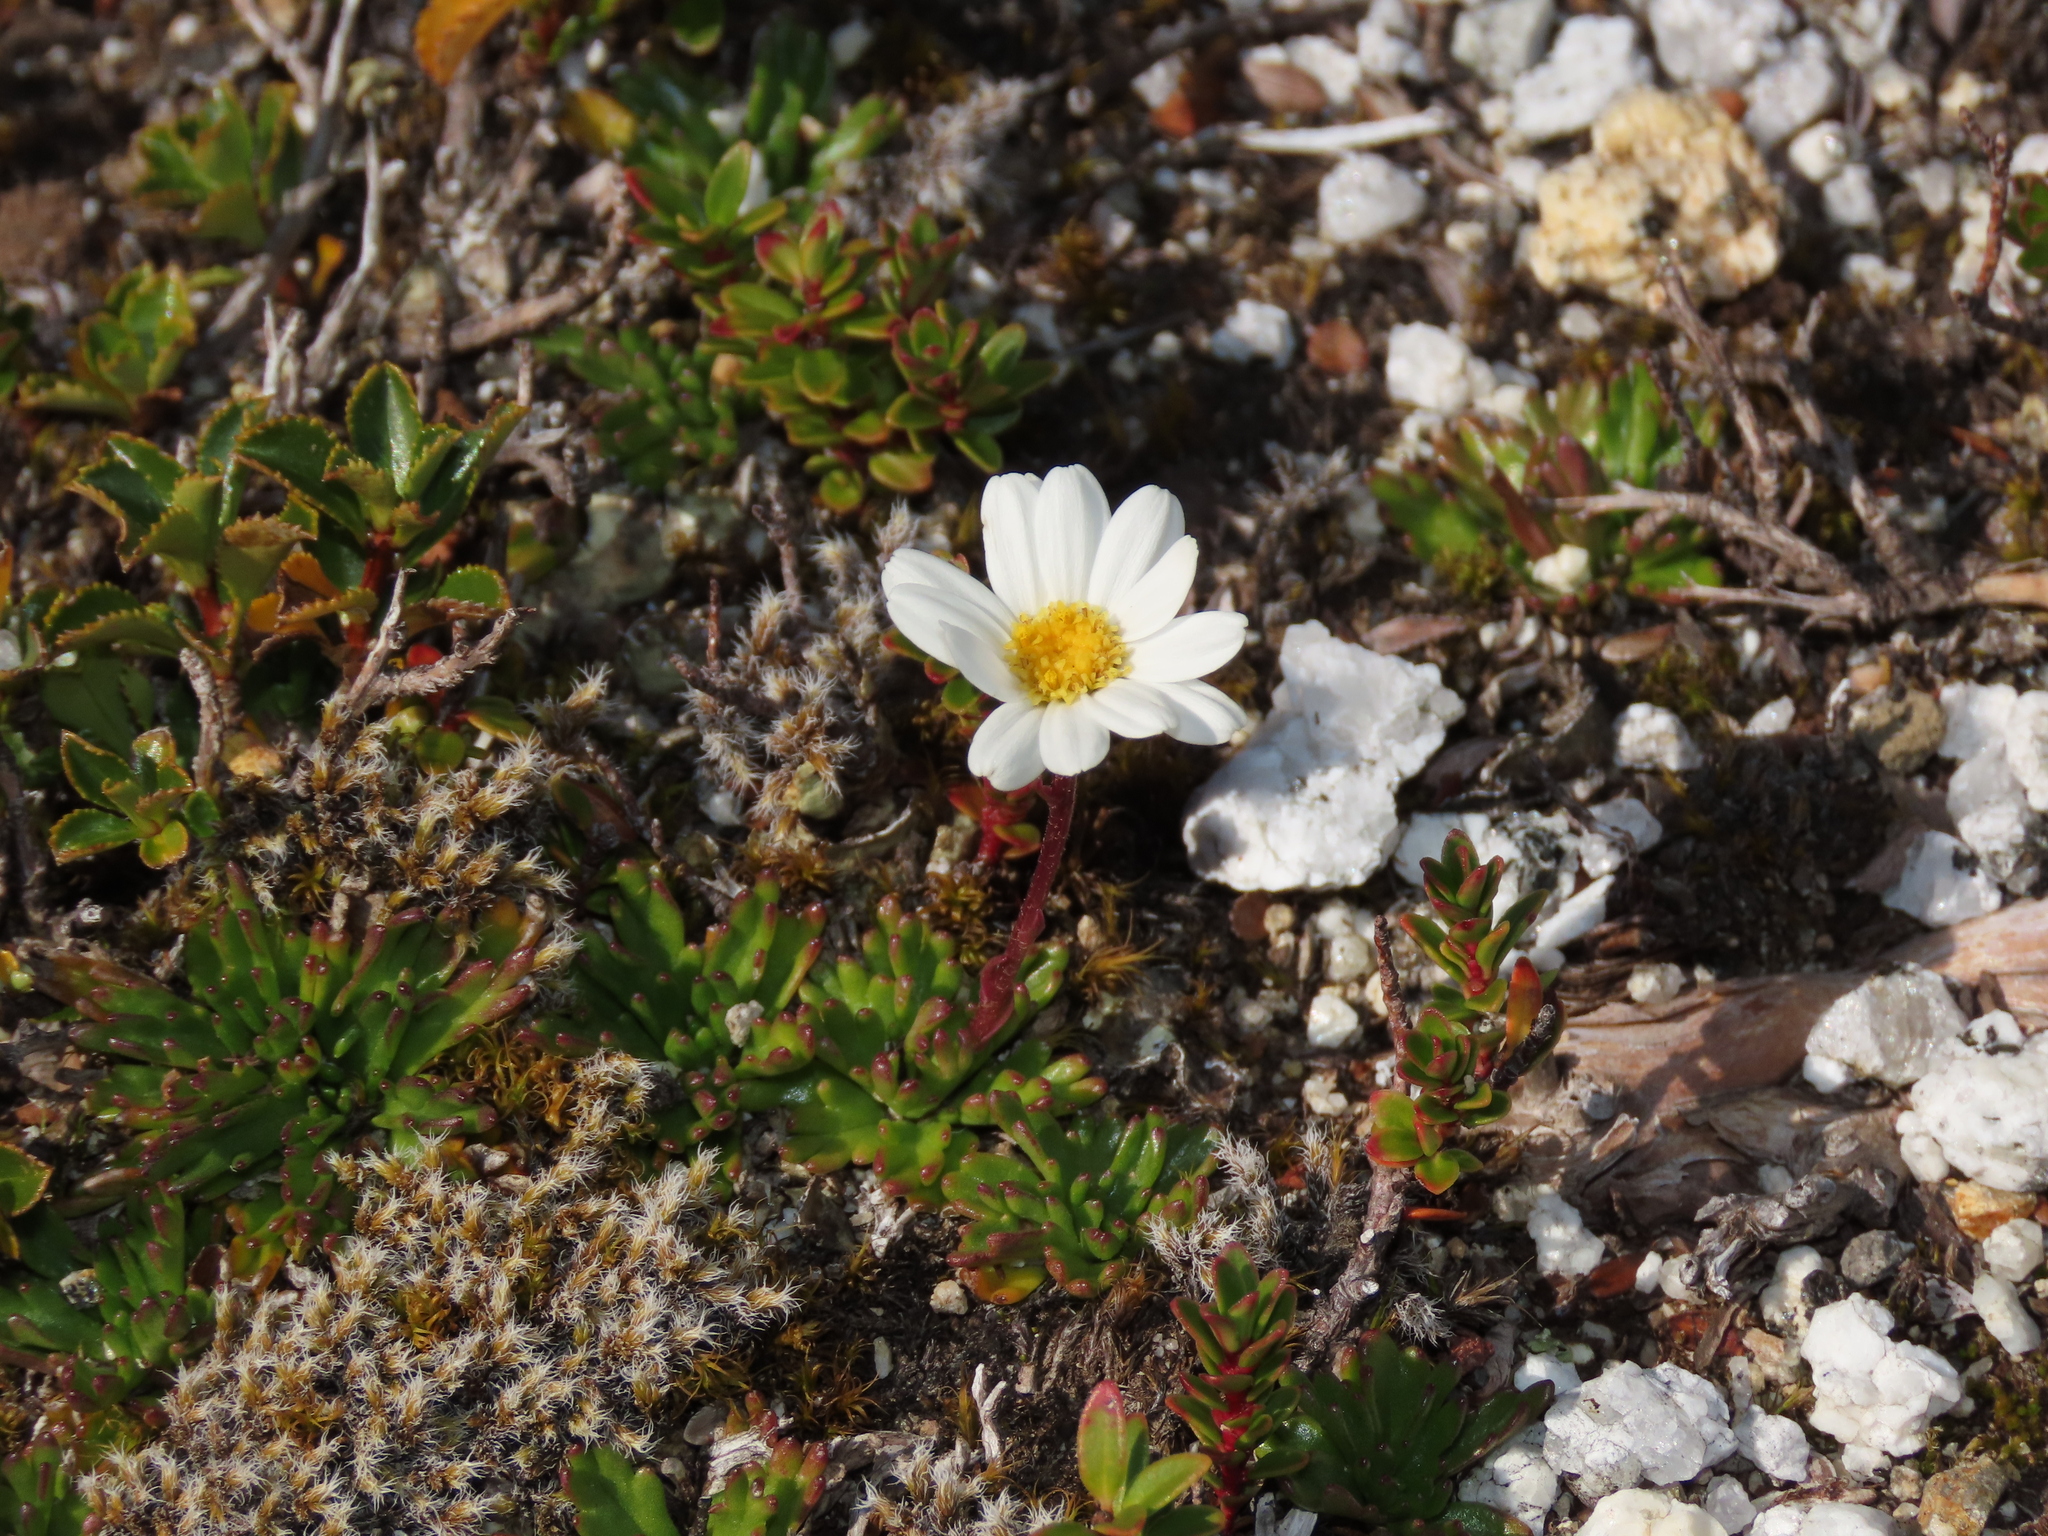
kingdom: Plantae
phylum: Tracheophyta
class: Magnoliopsida
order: Asterales
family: Asteraceae
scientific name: Asteraceae
